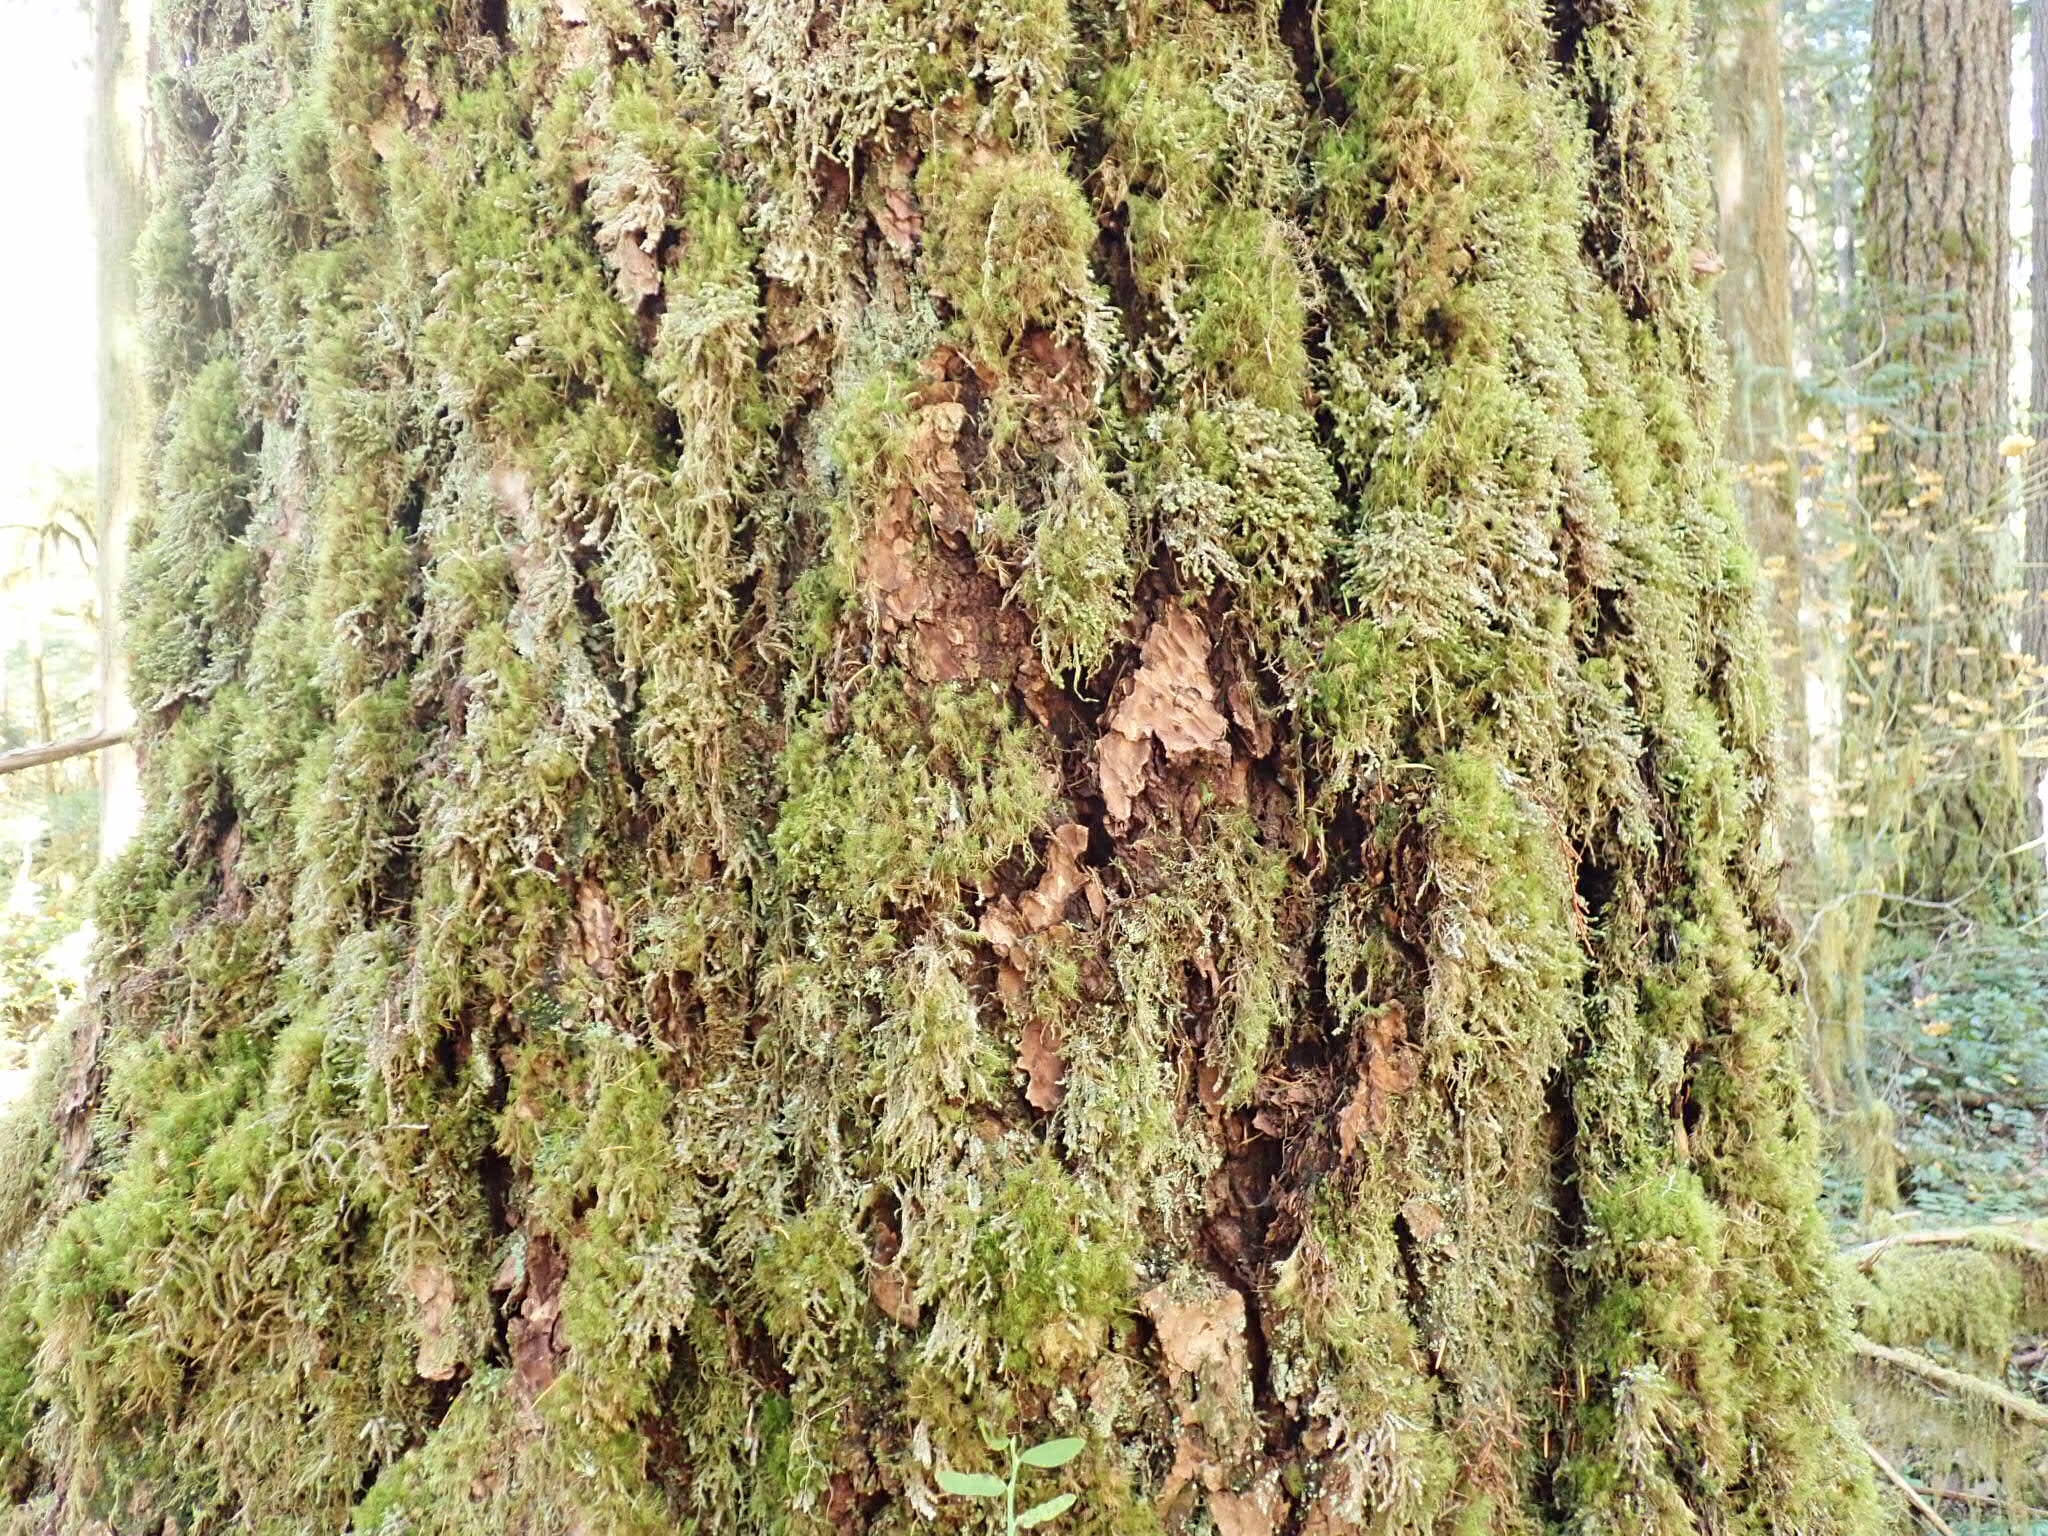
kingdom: Plantae
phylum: Bryophyta
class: Bryopsida
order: Hypnales
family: Brachytheciaceae
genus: Kindbergia
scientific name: Kindbergia oregana
